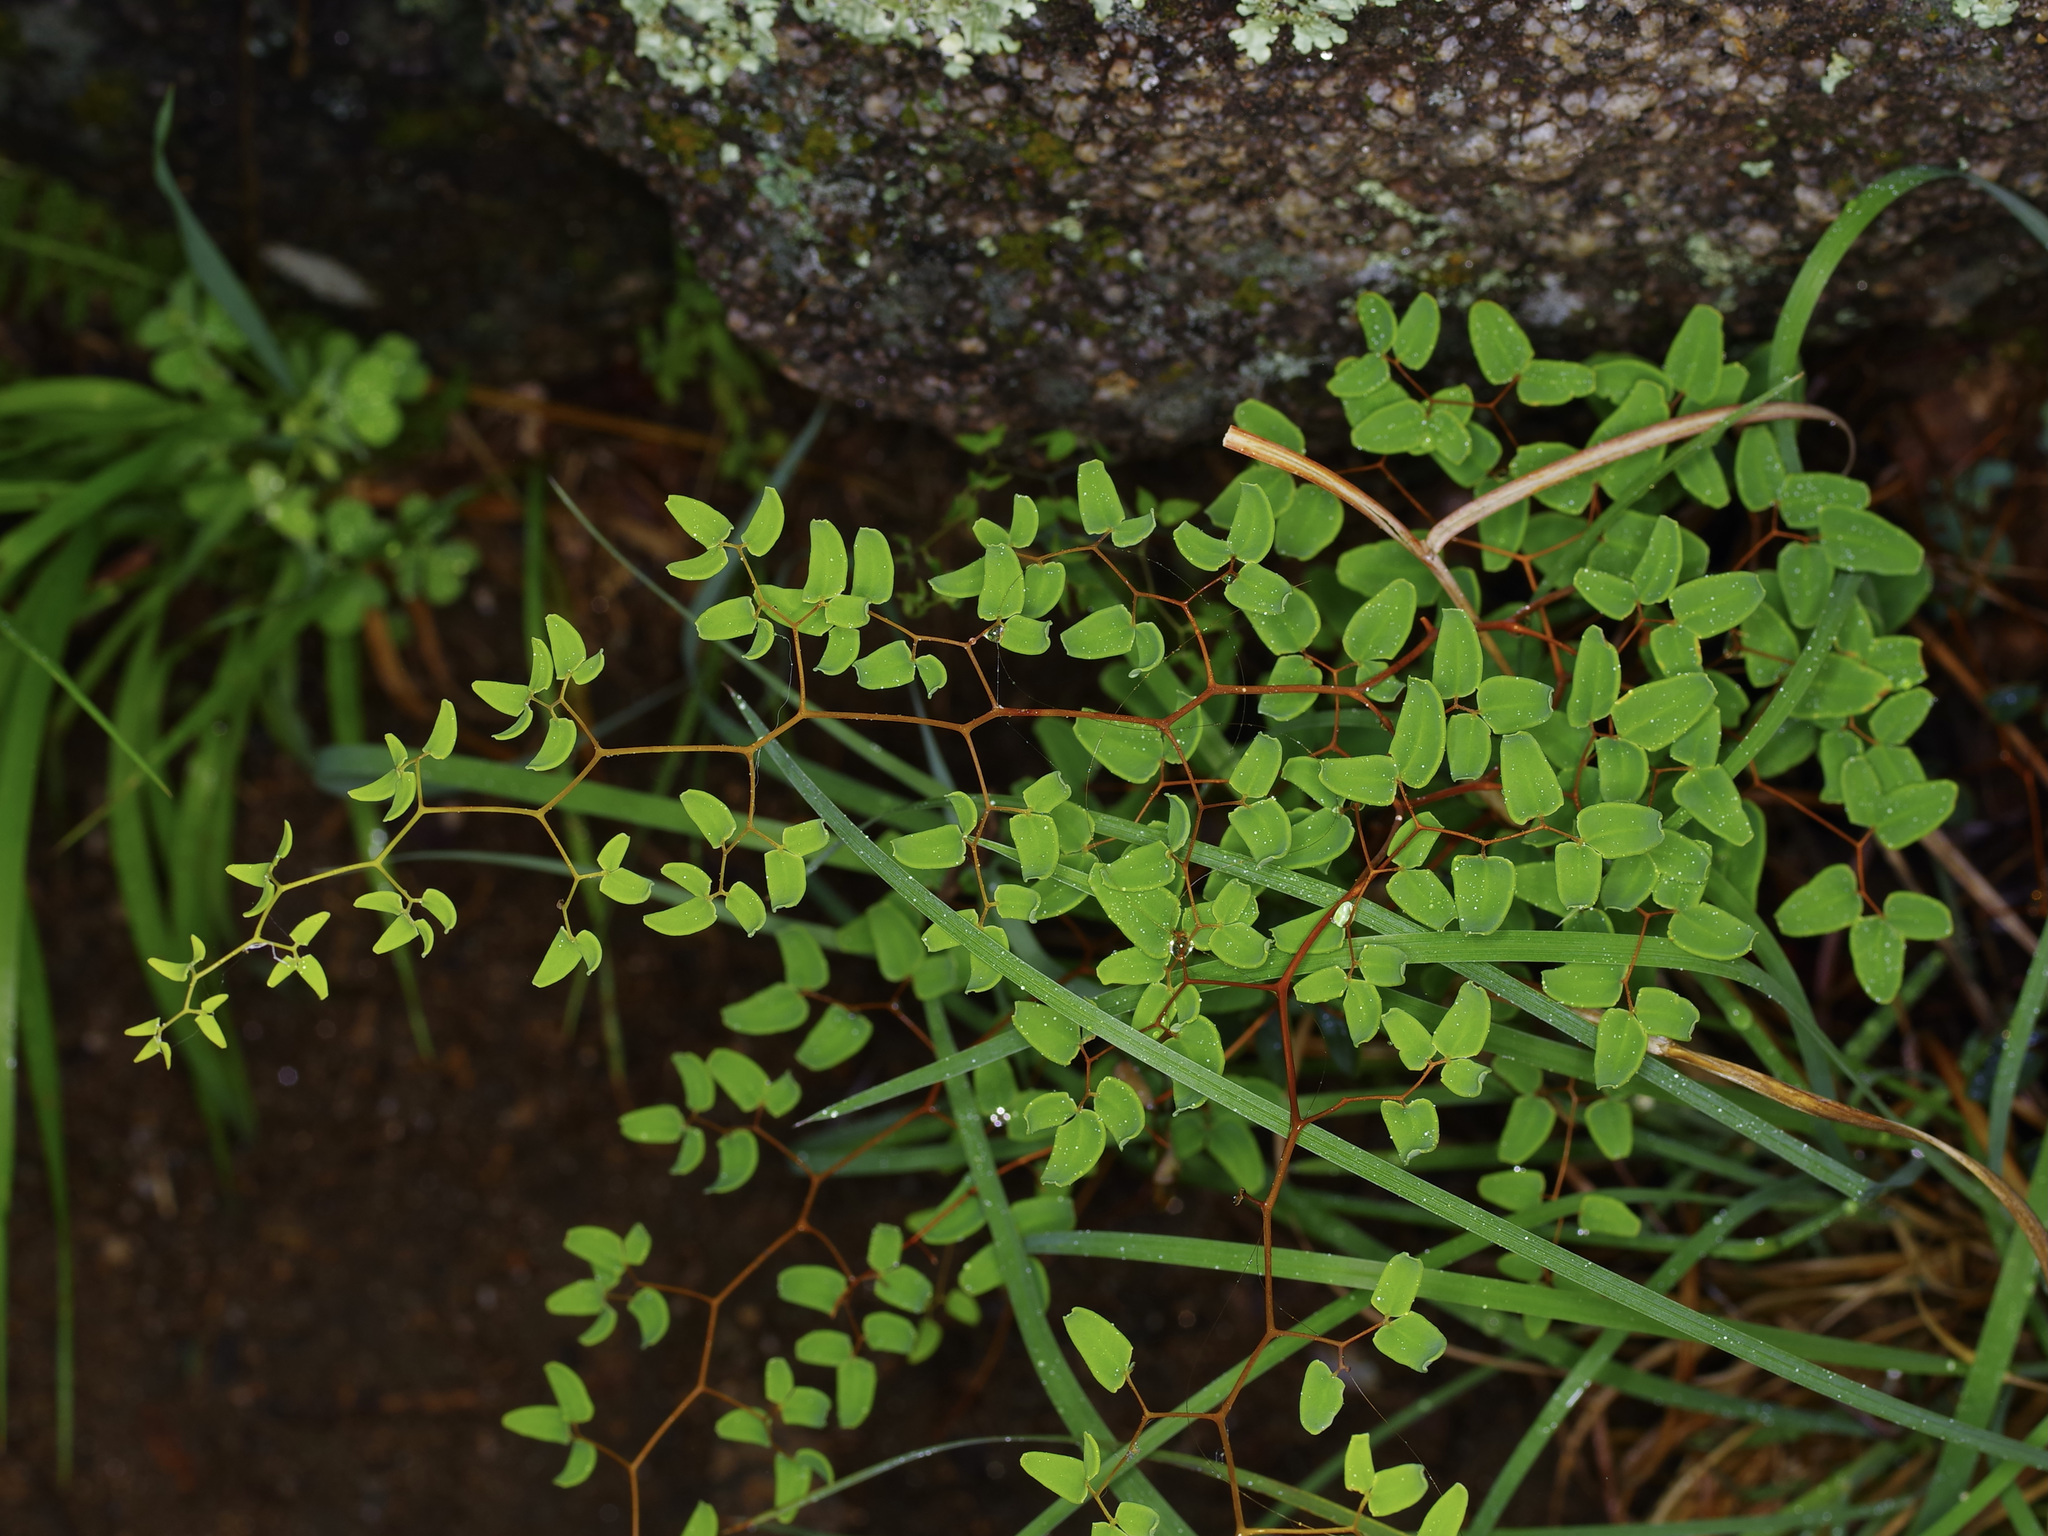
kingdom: Plantae
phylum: Tracheophyta
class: Polypodiopsida
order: Polypodiales
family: Pteridaceae
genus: Pellaea
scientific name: Pellaea ovata
